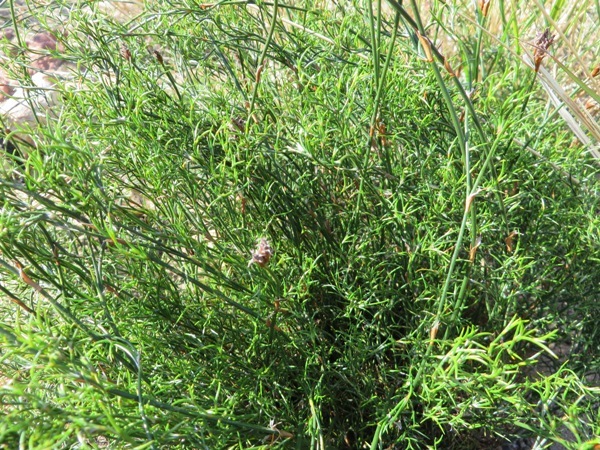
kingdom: Plantae
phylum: Tracheophyta
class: Liliopsida
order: Poales
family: Restionaceae
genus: Restio
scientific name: Restio capensis
